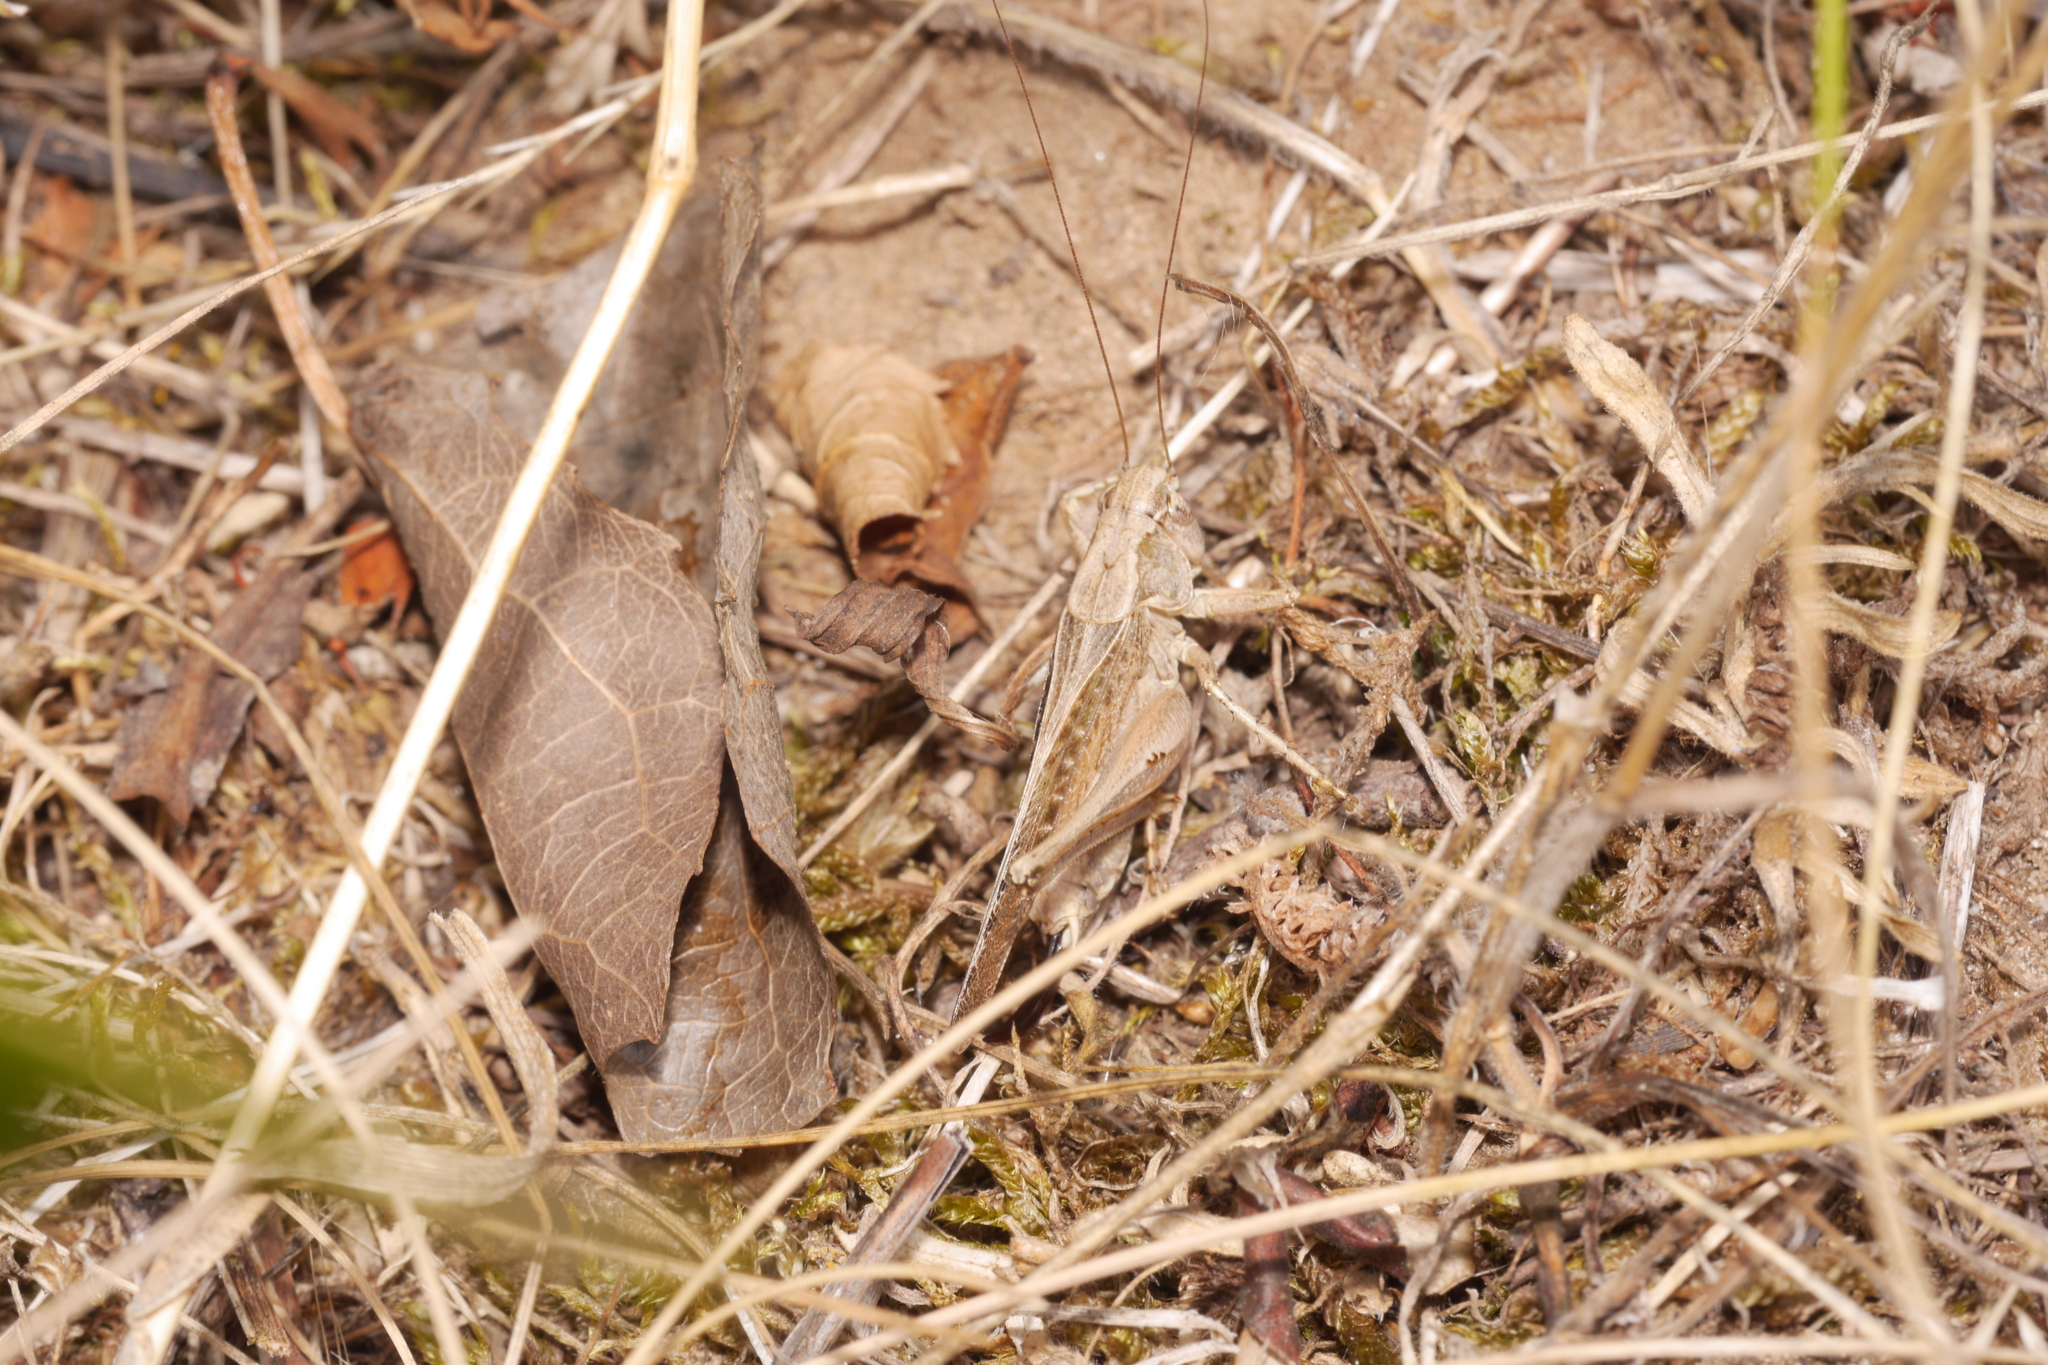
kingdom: Animalia
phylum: Arthropoda
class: Insecta
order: Orthoptera
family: Tettigoniidae
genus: Platycleis
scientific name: Platycleis albopunctata
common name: Grey bush-cricket
